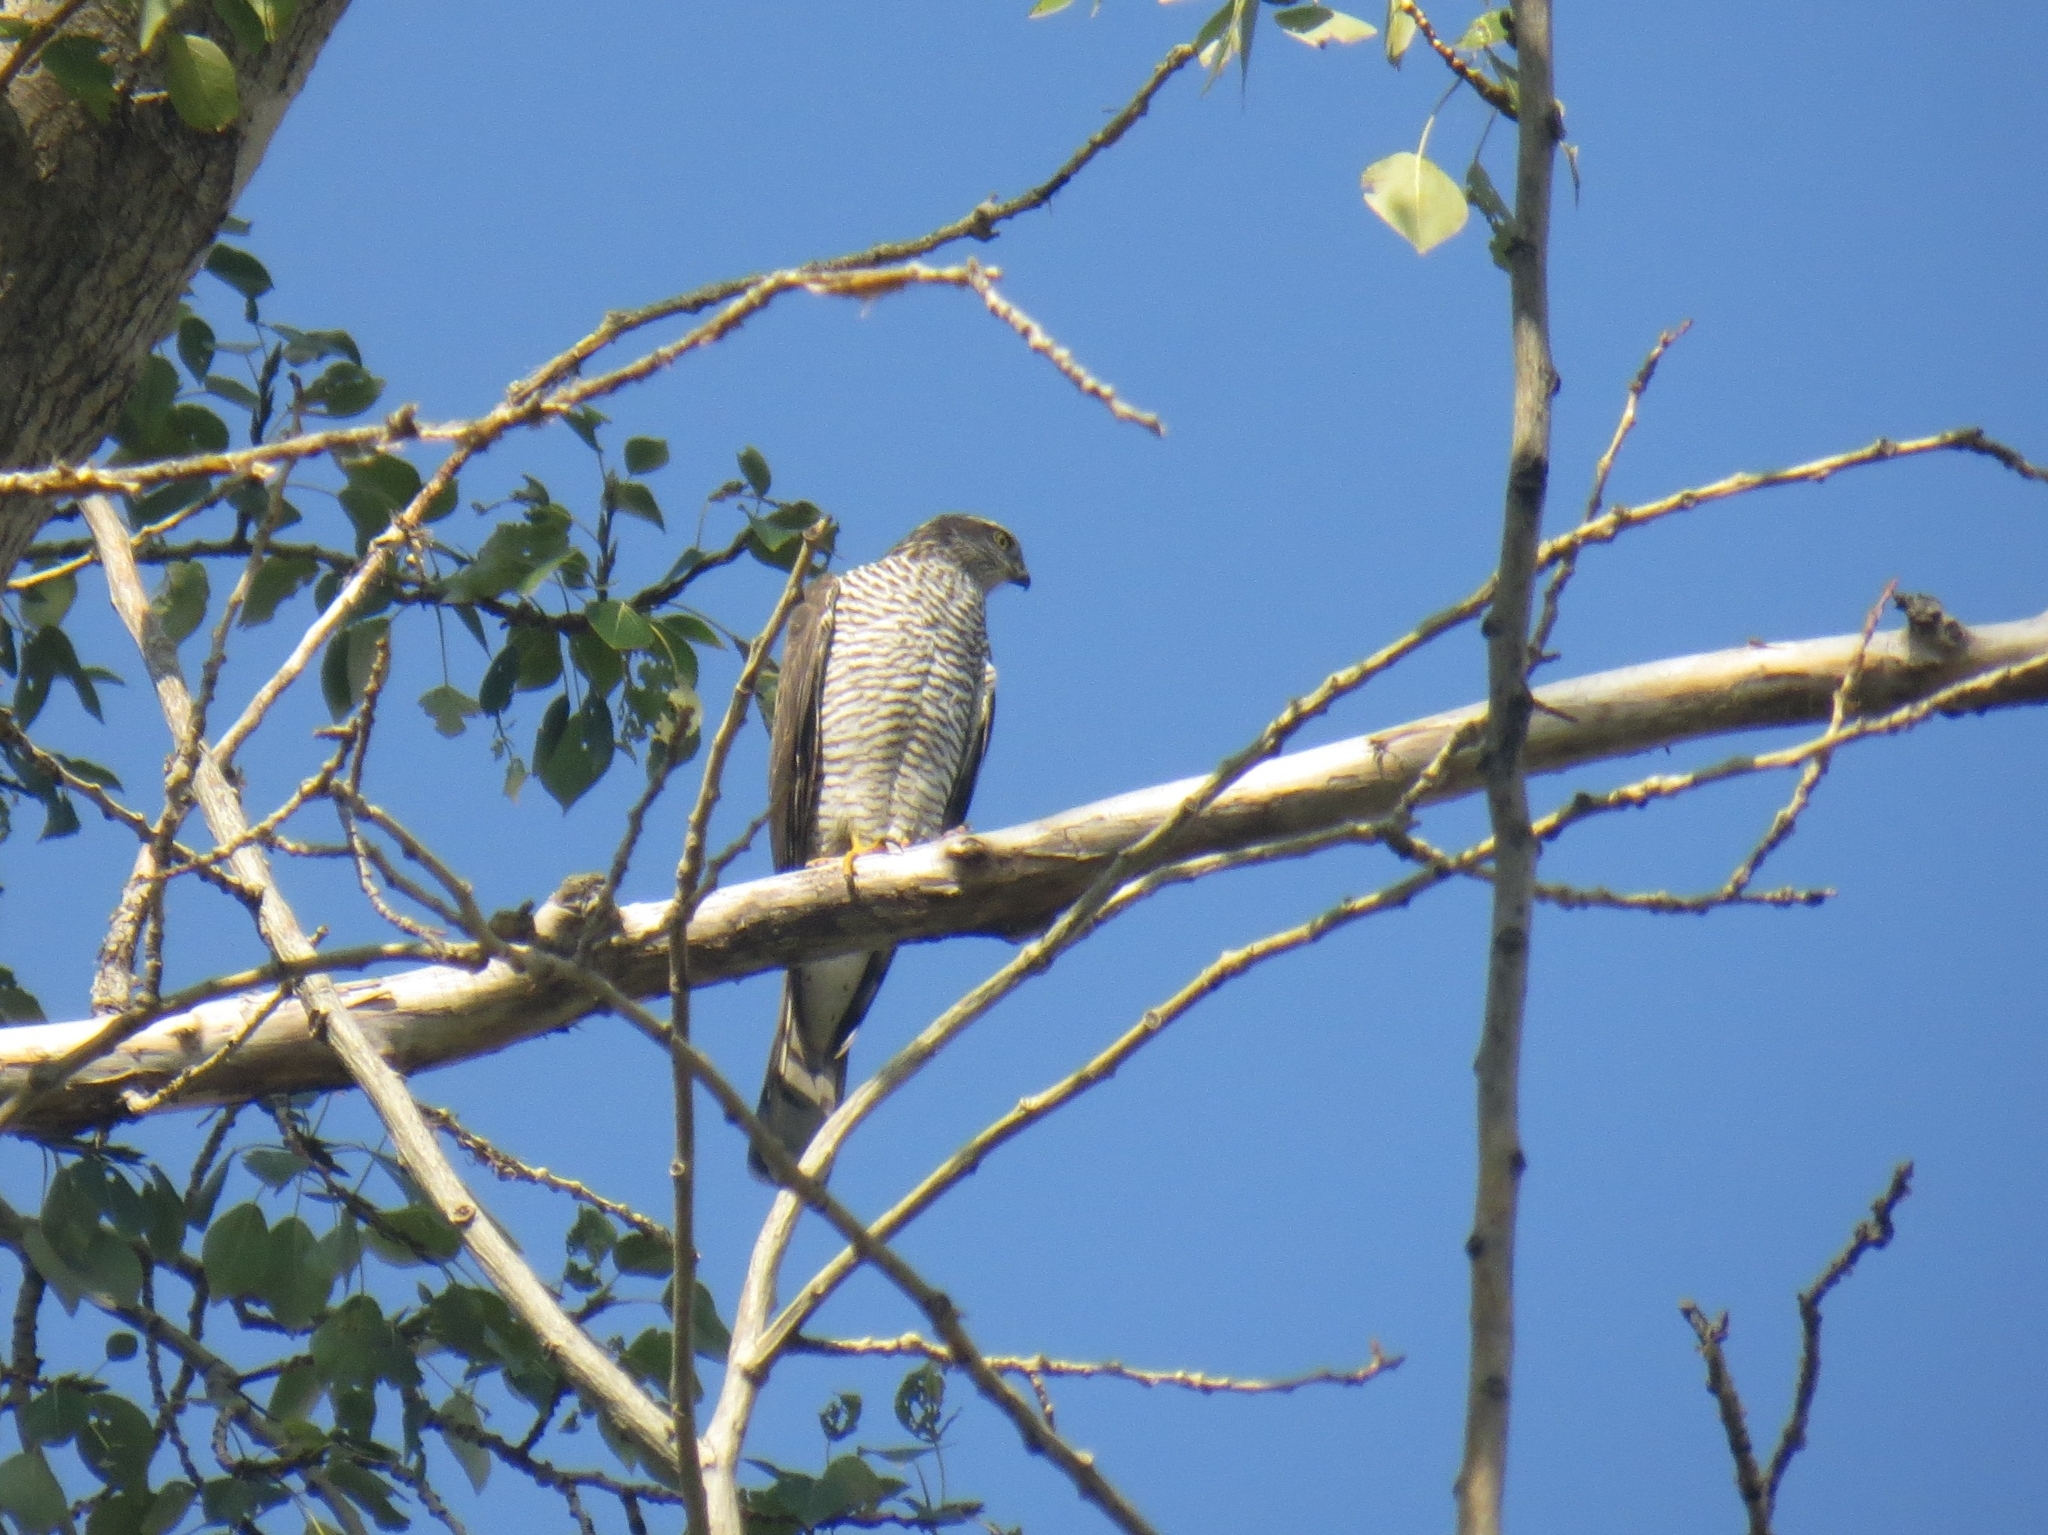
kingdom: Animalia
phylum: Chordata
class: Aves
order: Accipitriformes
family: Accipitridae
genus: Accipiter
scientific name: Accipiter nisus
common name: Eurasian sparrowhawk
